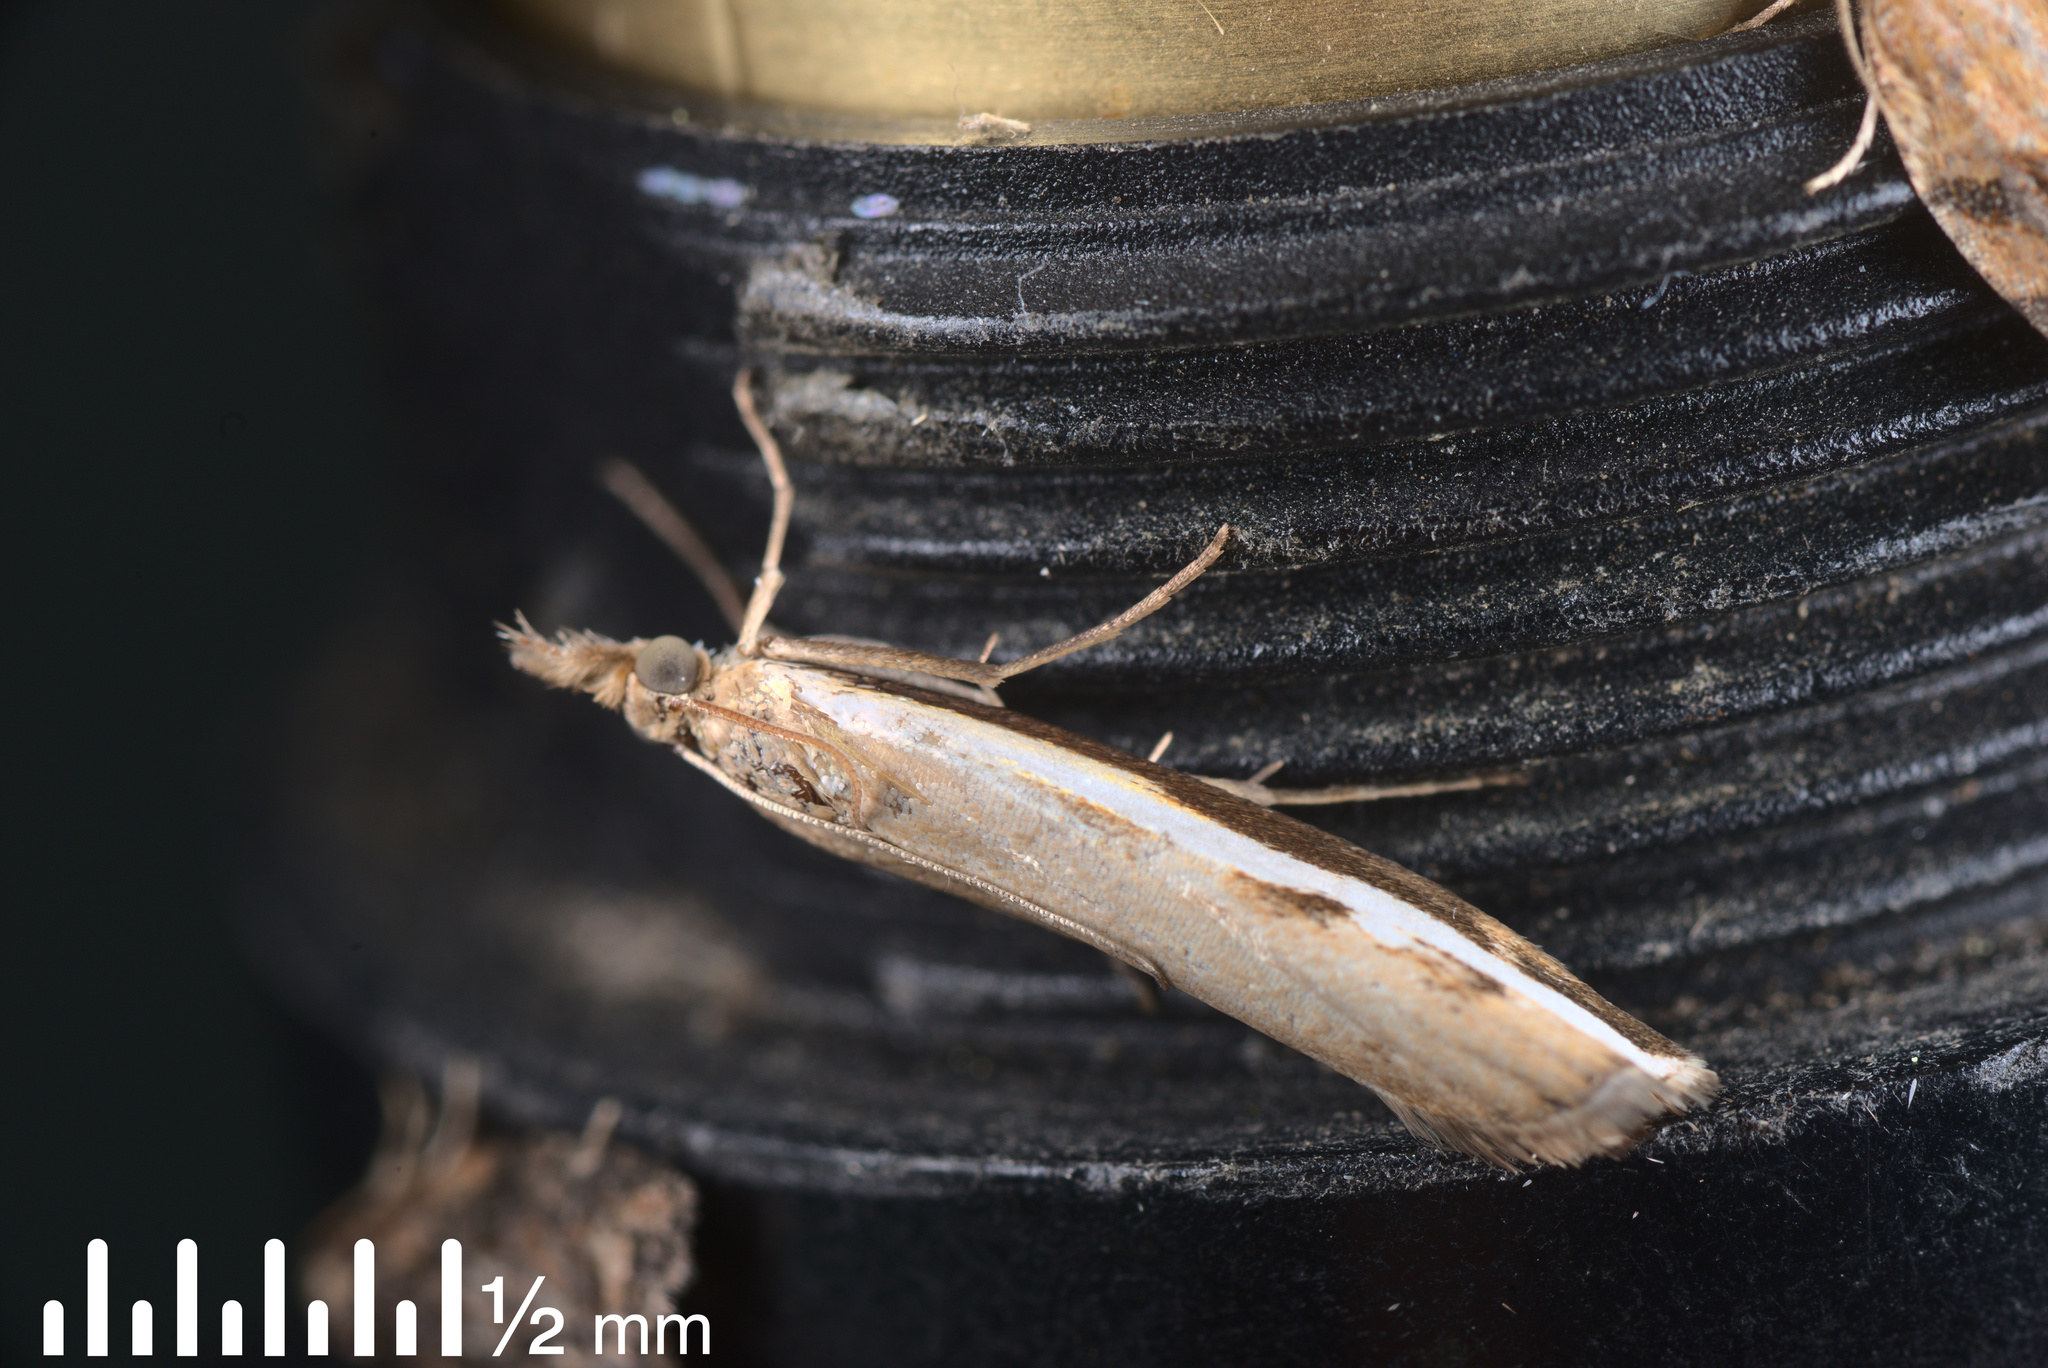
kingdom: Animalia
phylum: Arthropoda
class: Insecta
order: Lepidoptera
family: Crambidae
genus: Orocrambus
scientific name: Orocrambus flexuosellus
